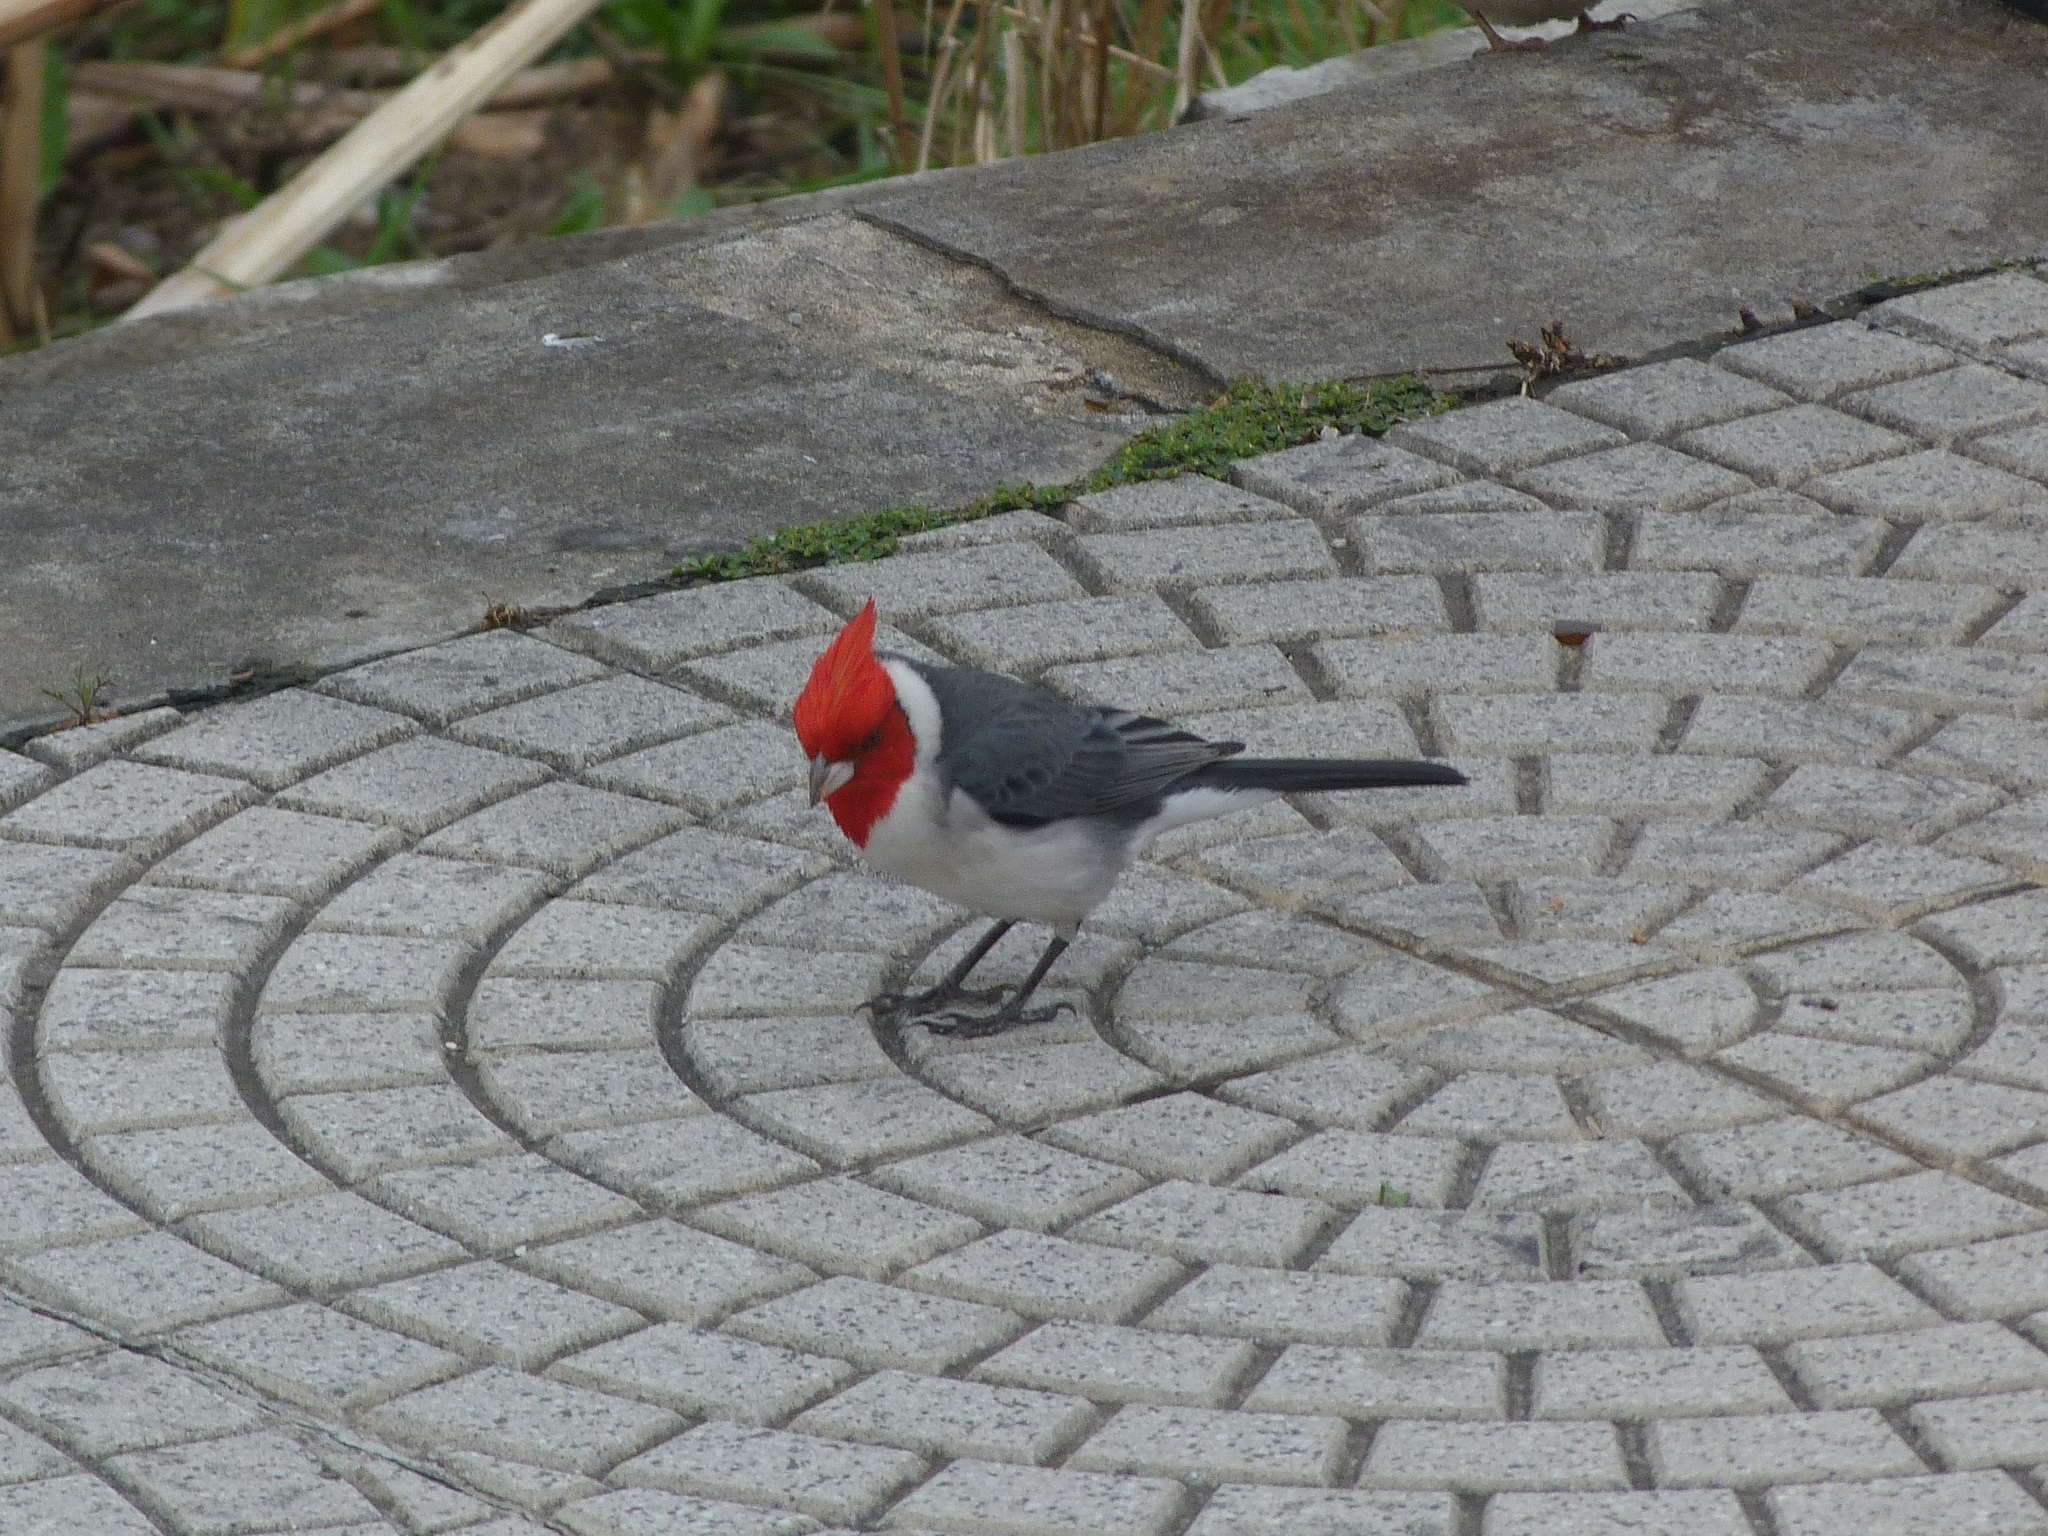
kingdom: Animalia
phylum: Chordata
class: Aves
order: Passeriformes
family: Thraupidae
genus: Paroaria
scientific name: Paroaria coronata
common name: Red-crested cardinal
